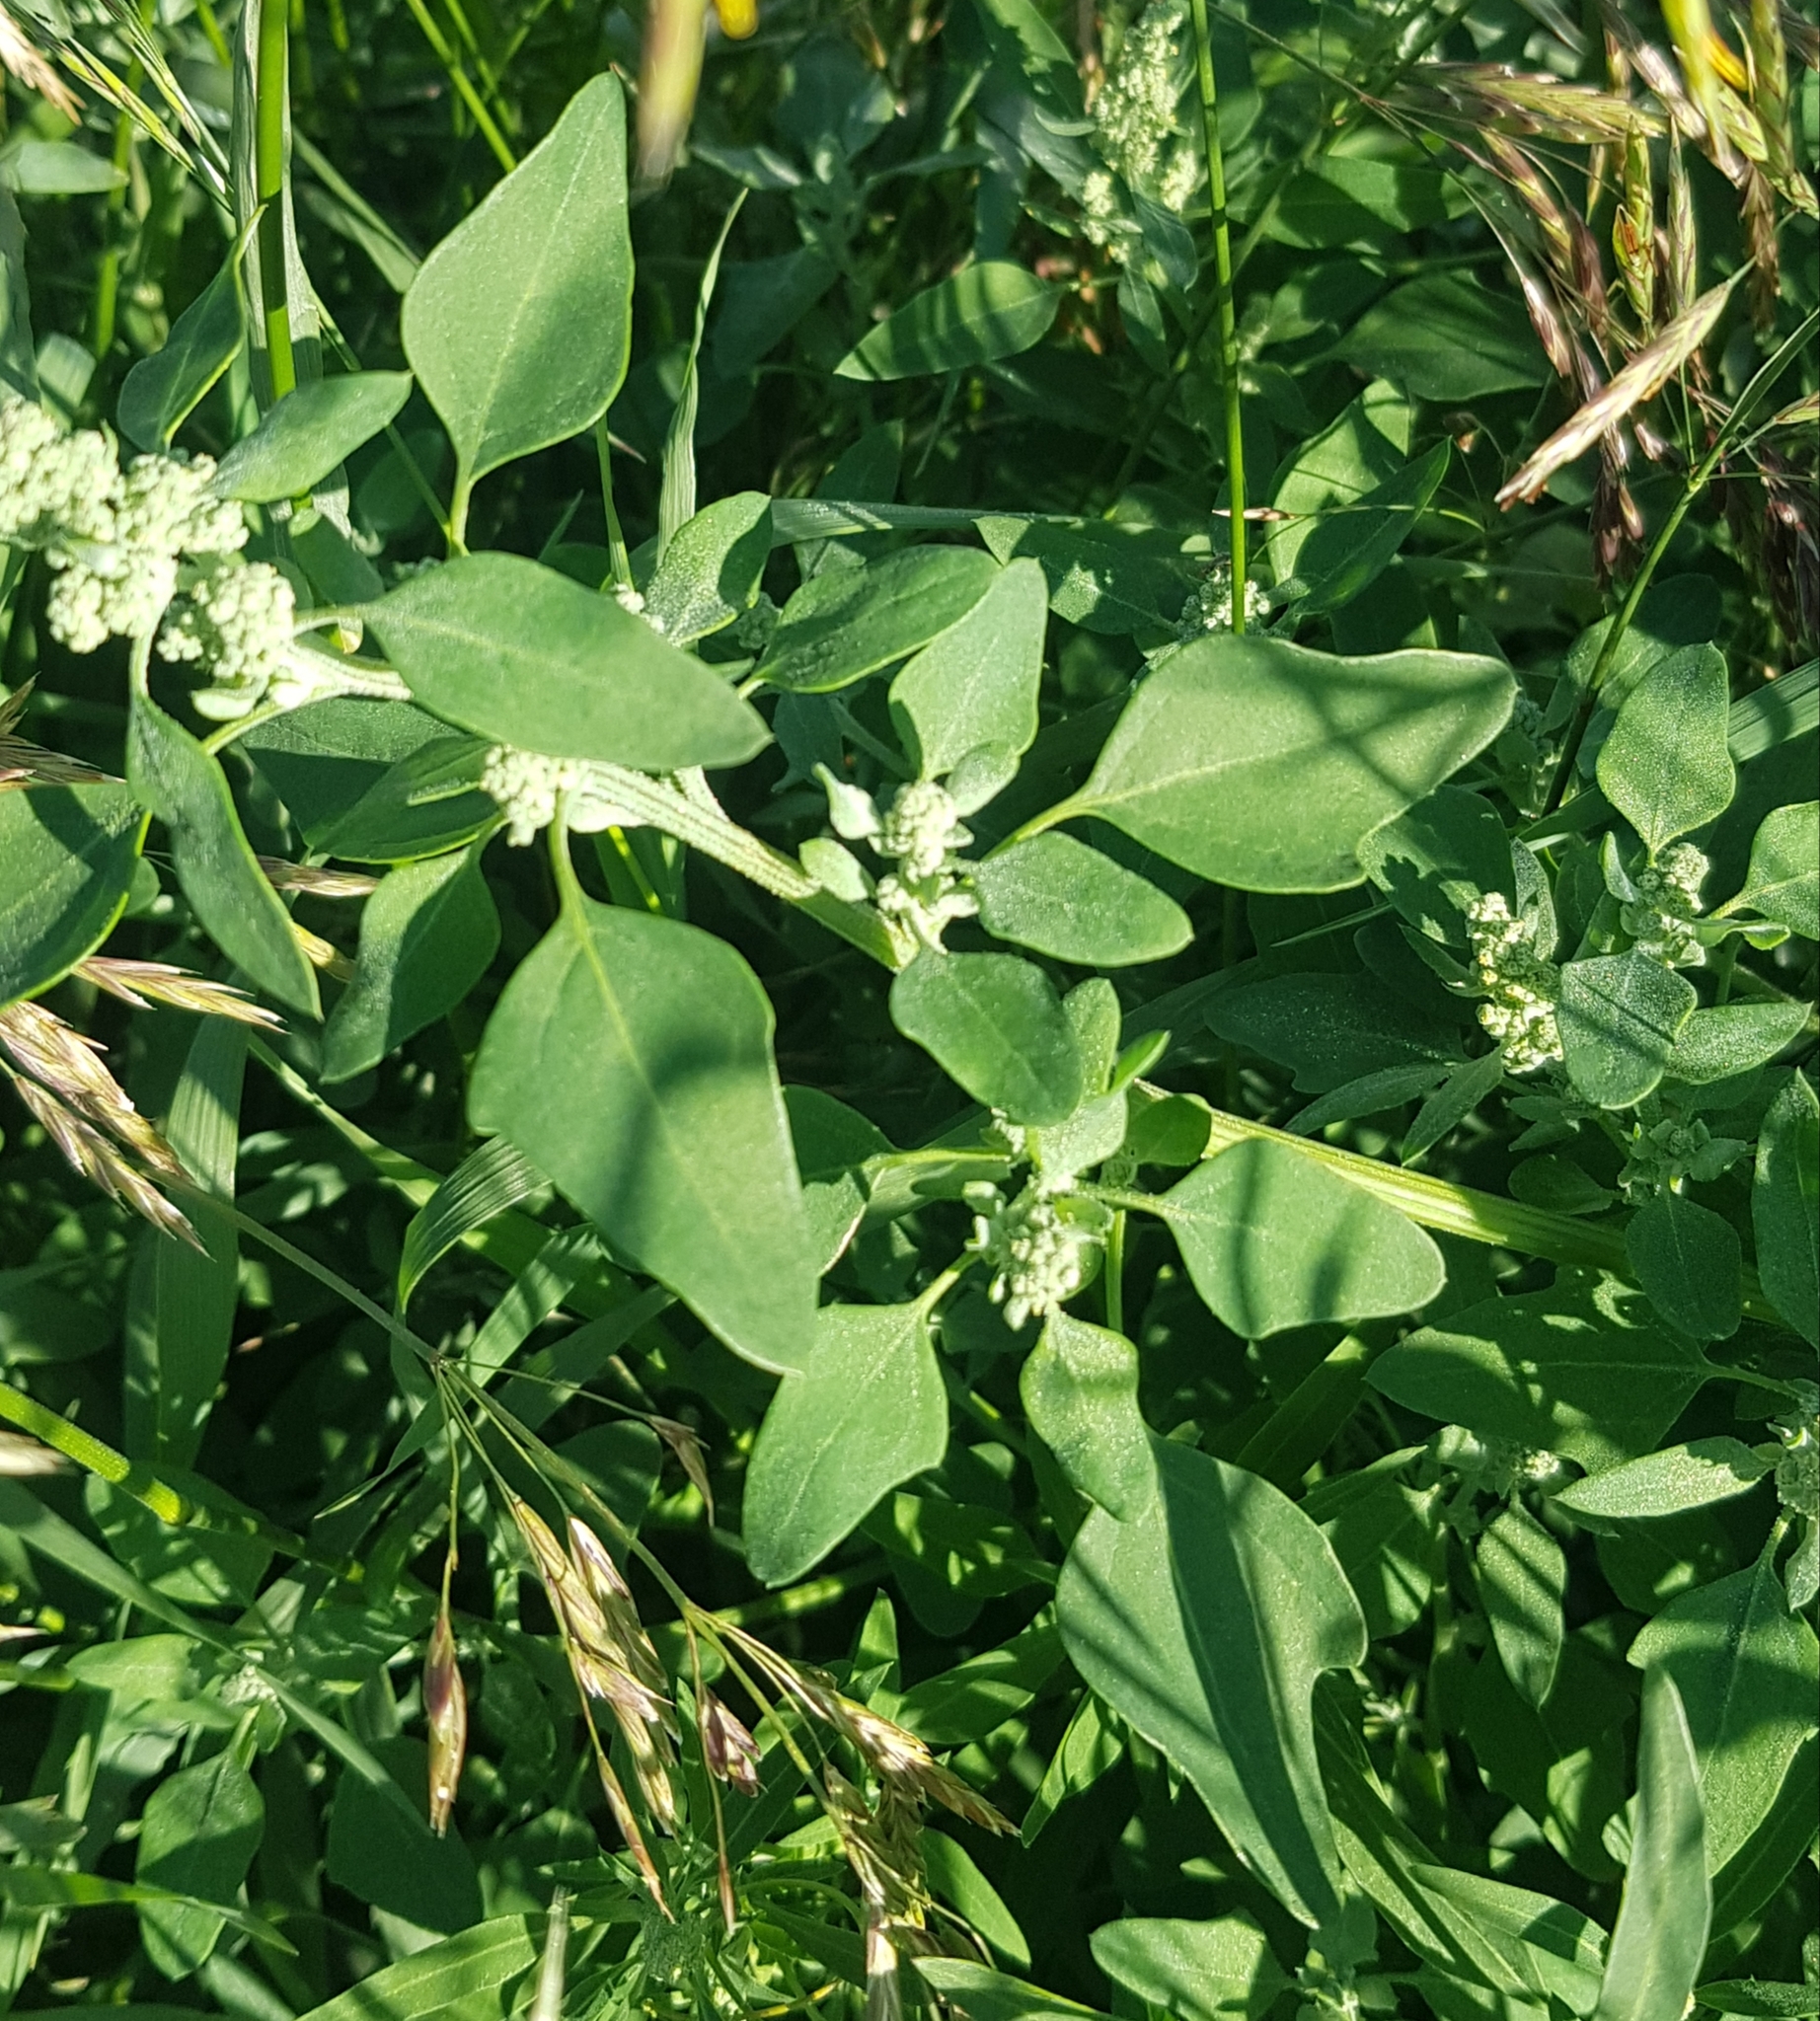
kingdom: Plantae
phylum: Tracheophyta
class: Magnoliopsida
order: Caryophyllales
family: Amaranthaceae
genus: Chenopodium
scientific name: Chenopodium album
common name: Fat-hen
